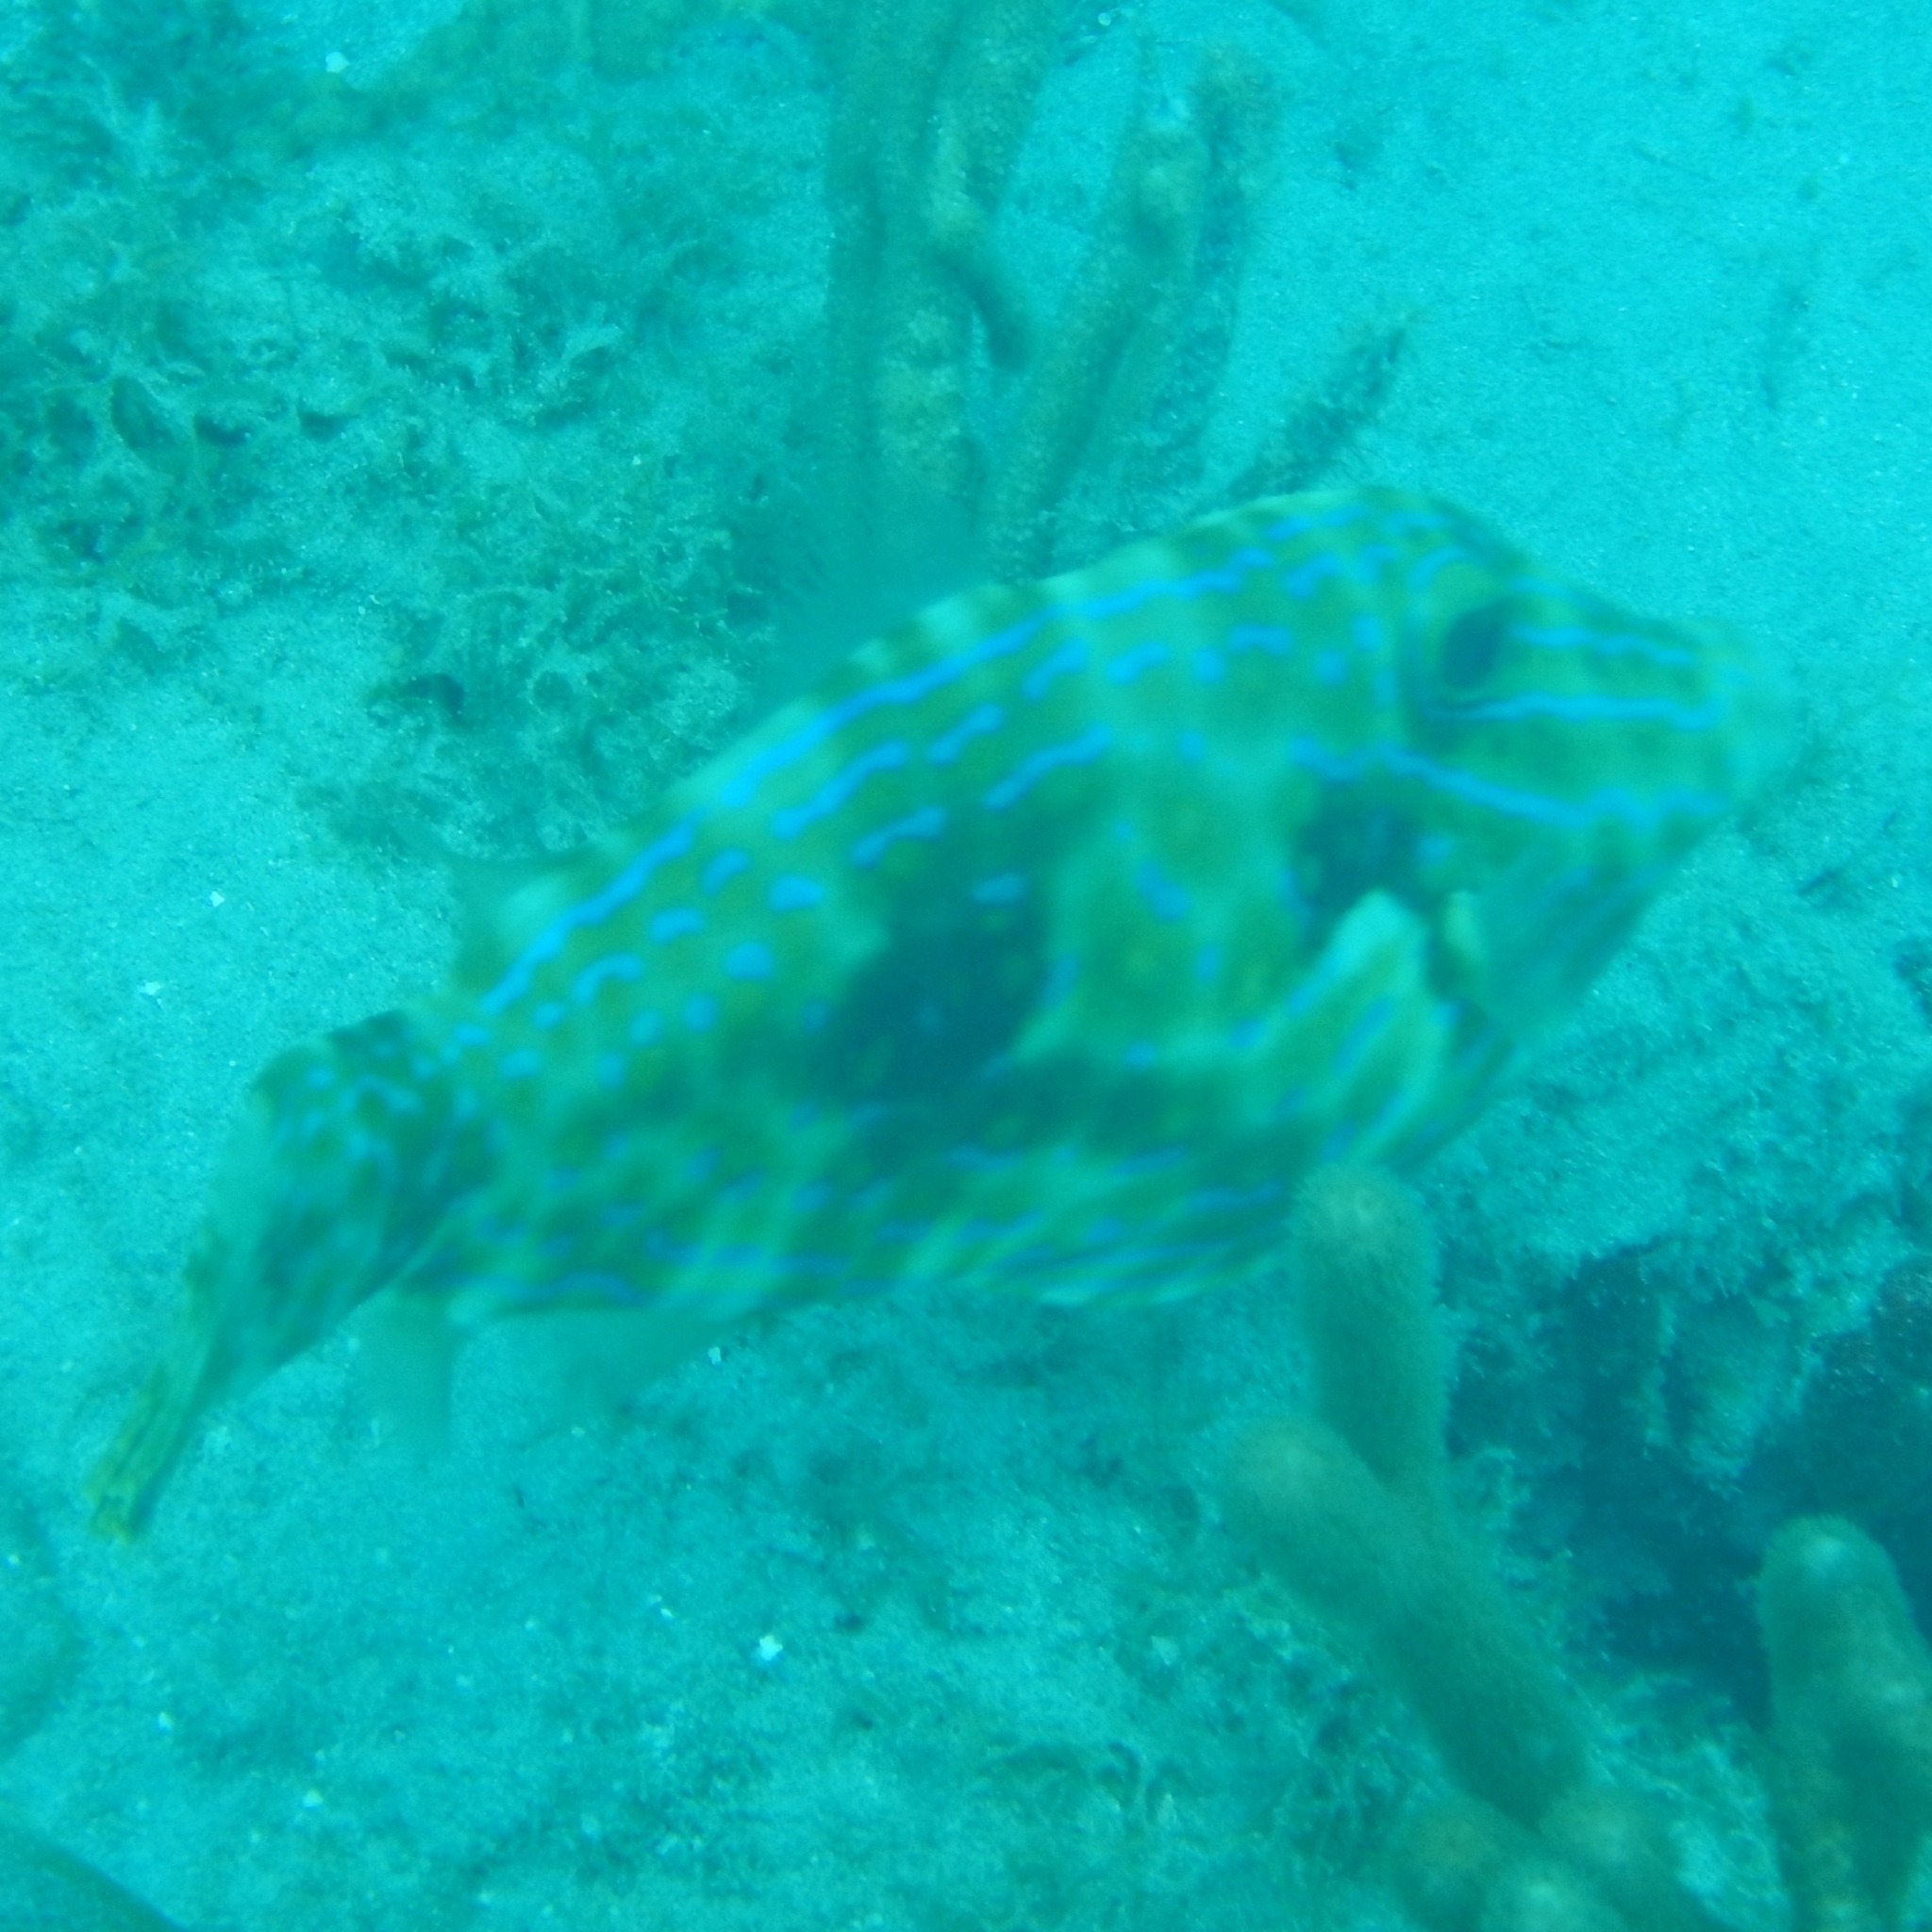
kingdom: Animalia
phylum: Chordata
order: Tetraodontiformes
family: Monacanthidae
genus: Aluterus
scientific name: Aluterus scriptus
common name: Scribbled leatherjacket filefish
